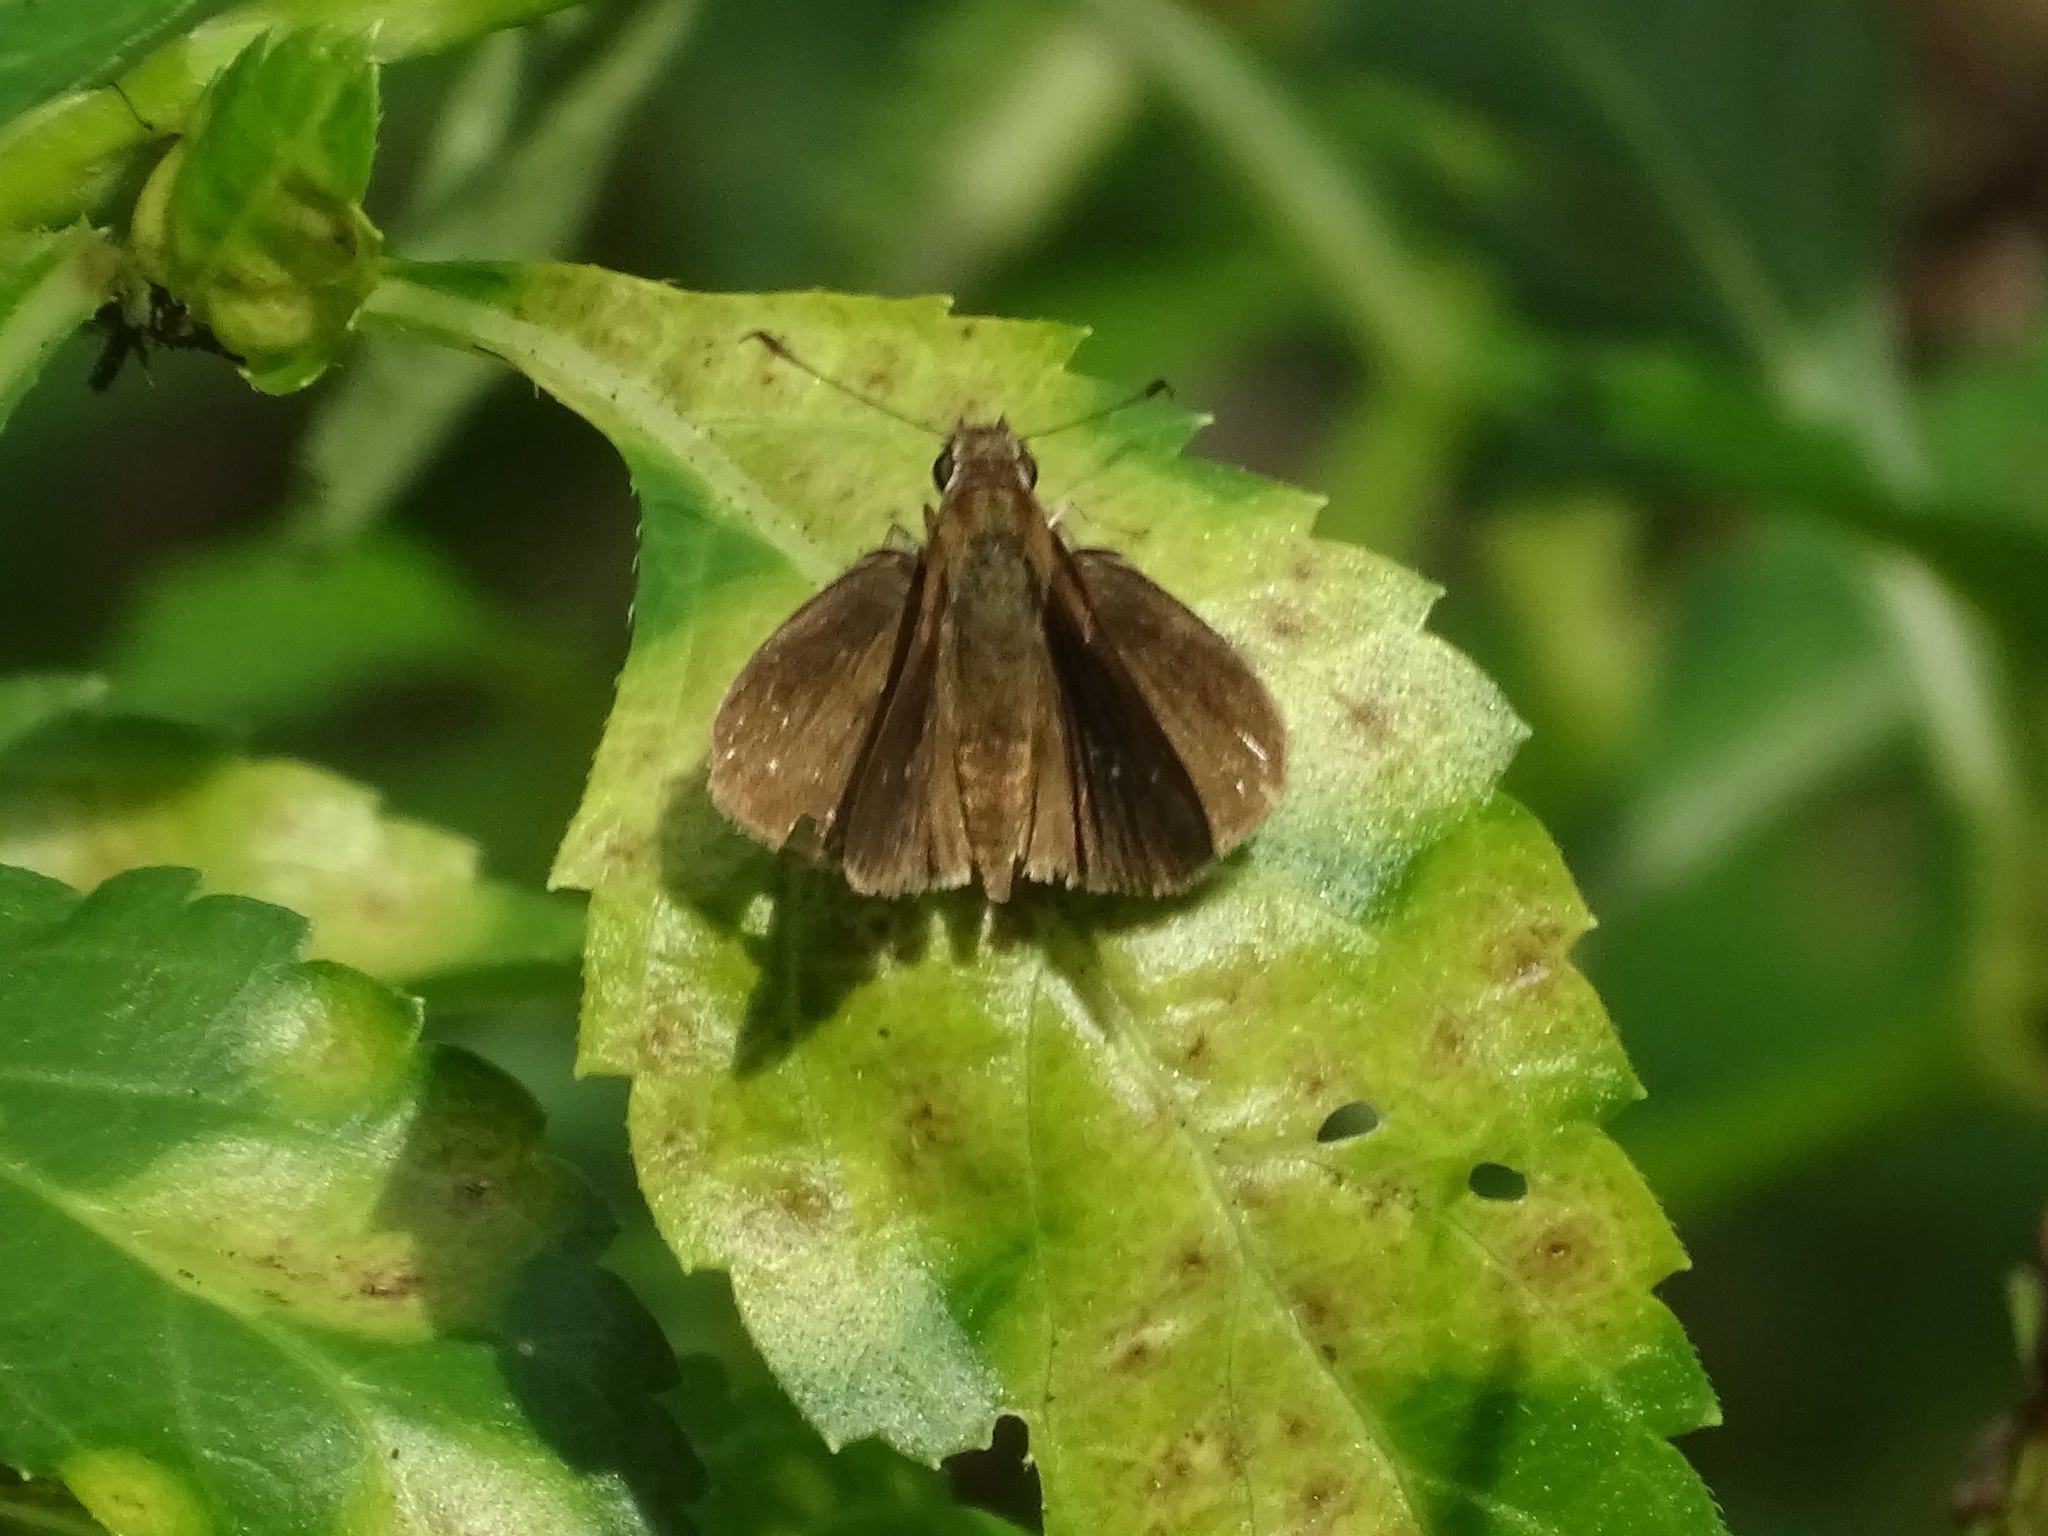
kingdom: Animalia
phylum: Arthropoda
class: Insecta
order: Lepidoptera
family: Hesperiidae
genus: Cymaenes
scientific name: Cymaenes tripunctus
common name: Dingy dotted skipper
